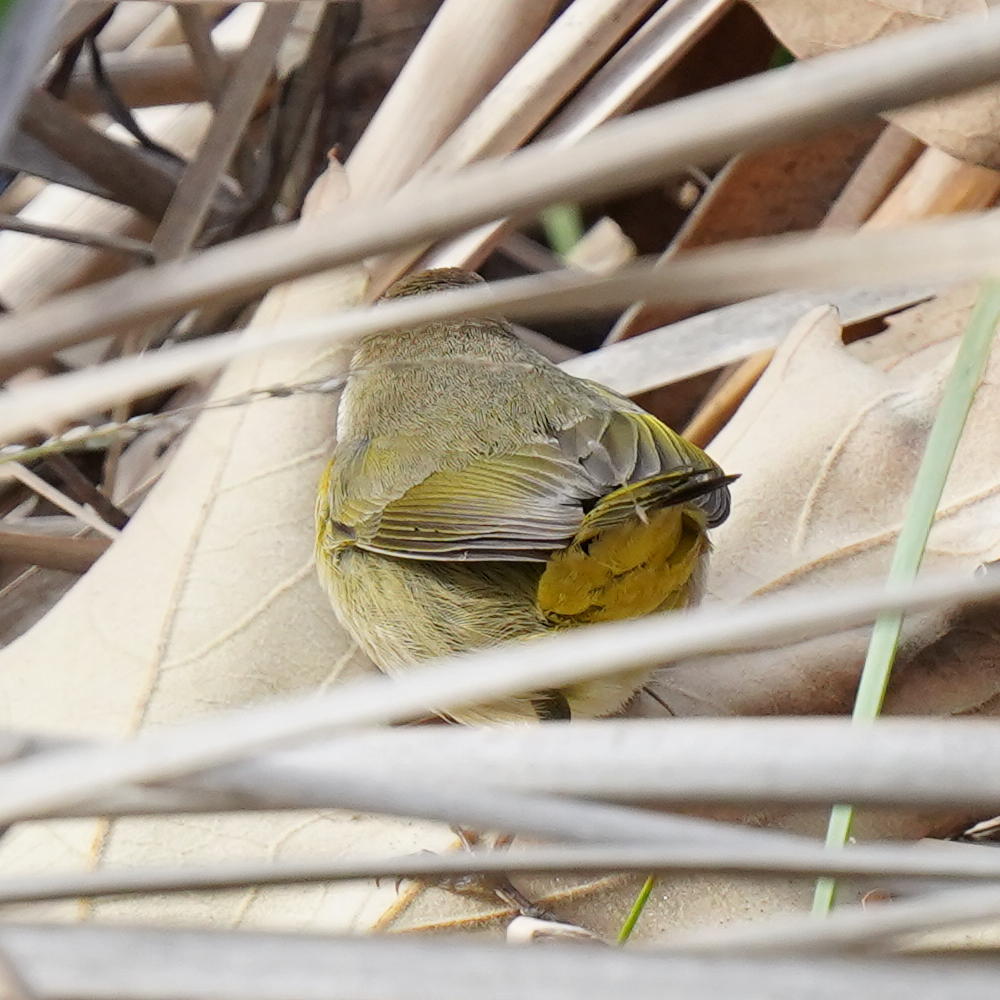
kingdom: Animalia
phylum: Chordata
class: Aves
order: Passeriformes
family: Parulidae
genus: Geothlypis
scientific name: Geothlypis trichas
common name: Common yellowthroat
